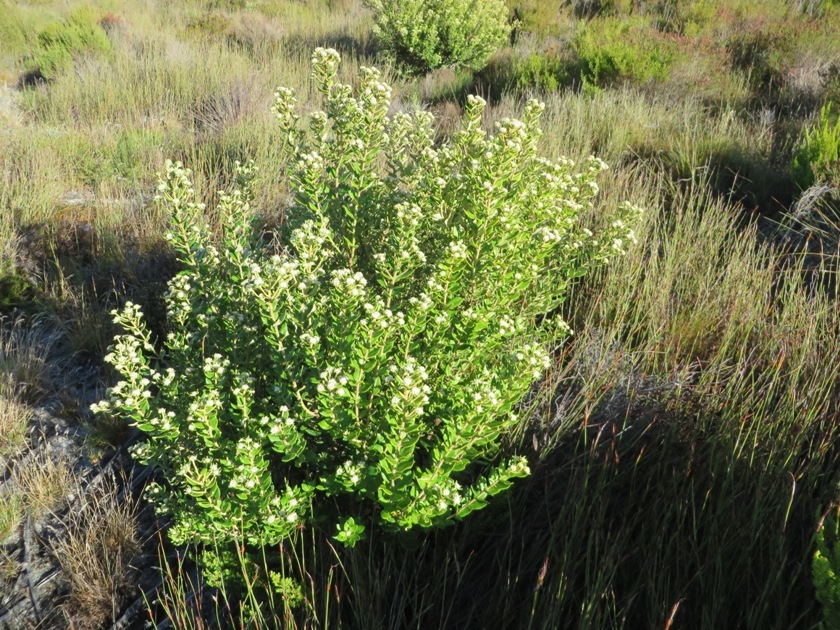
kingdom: Plantae
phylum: Tracheophyta
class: Magnoliopsida
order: Rosales
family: Rhamnaceae
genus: Phylica
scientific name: Phylica buxifolia
